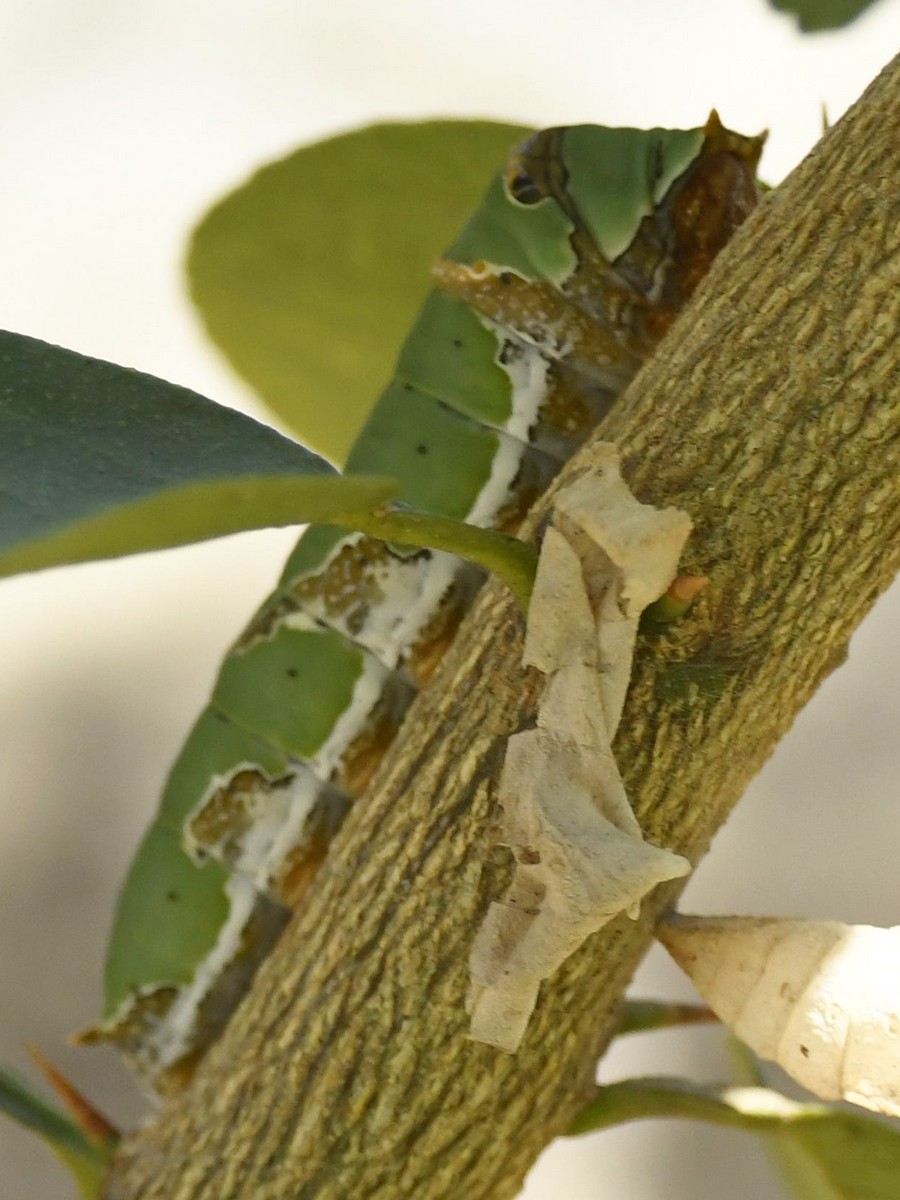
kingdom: Animalia
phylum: Arthropoda
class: Insecta
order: Lepidoptera
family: Papilionidae
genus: Papilio
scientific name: Papilio demoleus
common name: Lime butterfly
